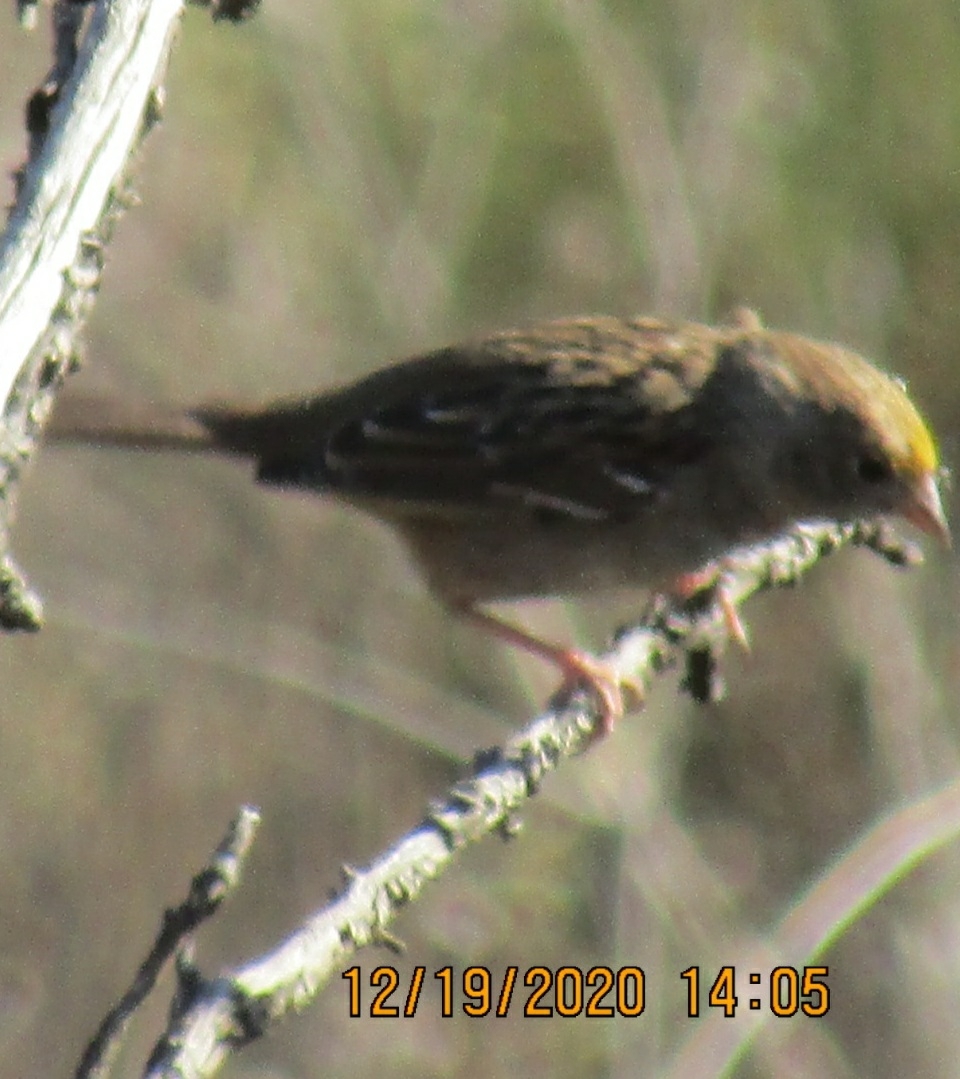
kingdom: Animalia
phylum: Chordata
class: Aves
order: Passeriformes
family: Passerellidae
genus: Zonotrichia
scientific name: Zonotrichia atricapilla
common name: Golden-crowned sparrow
